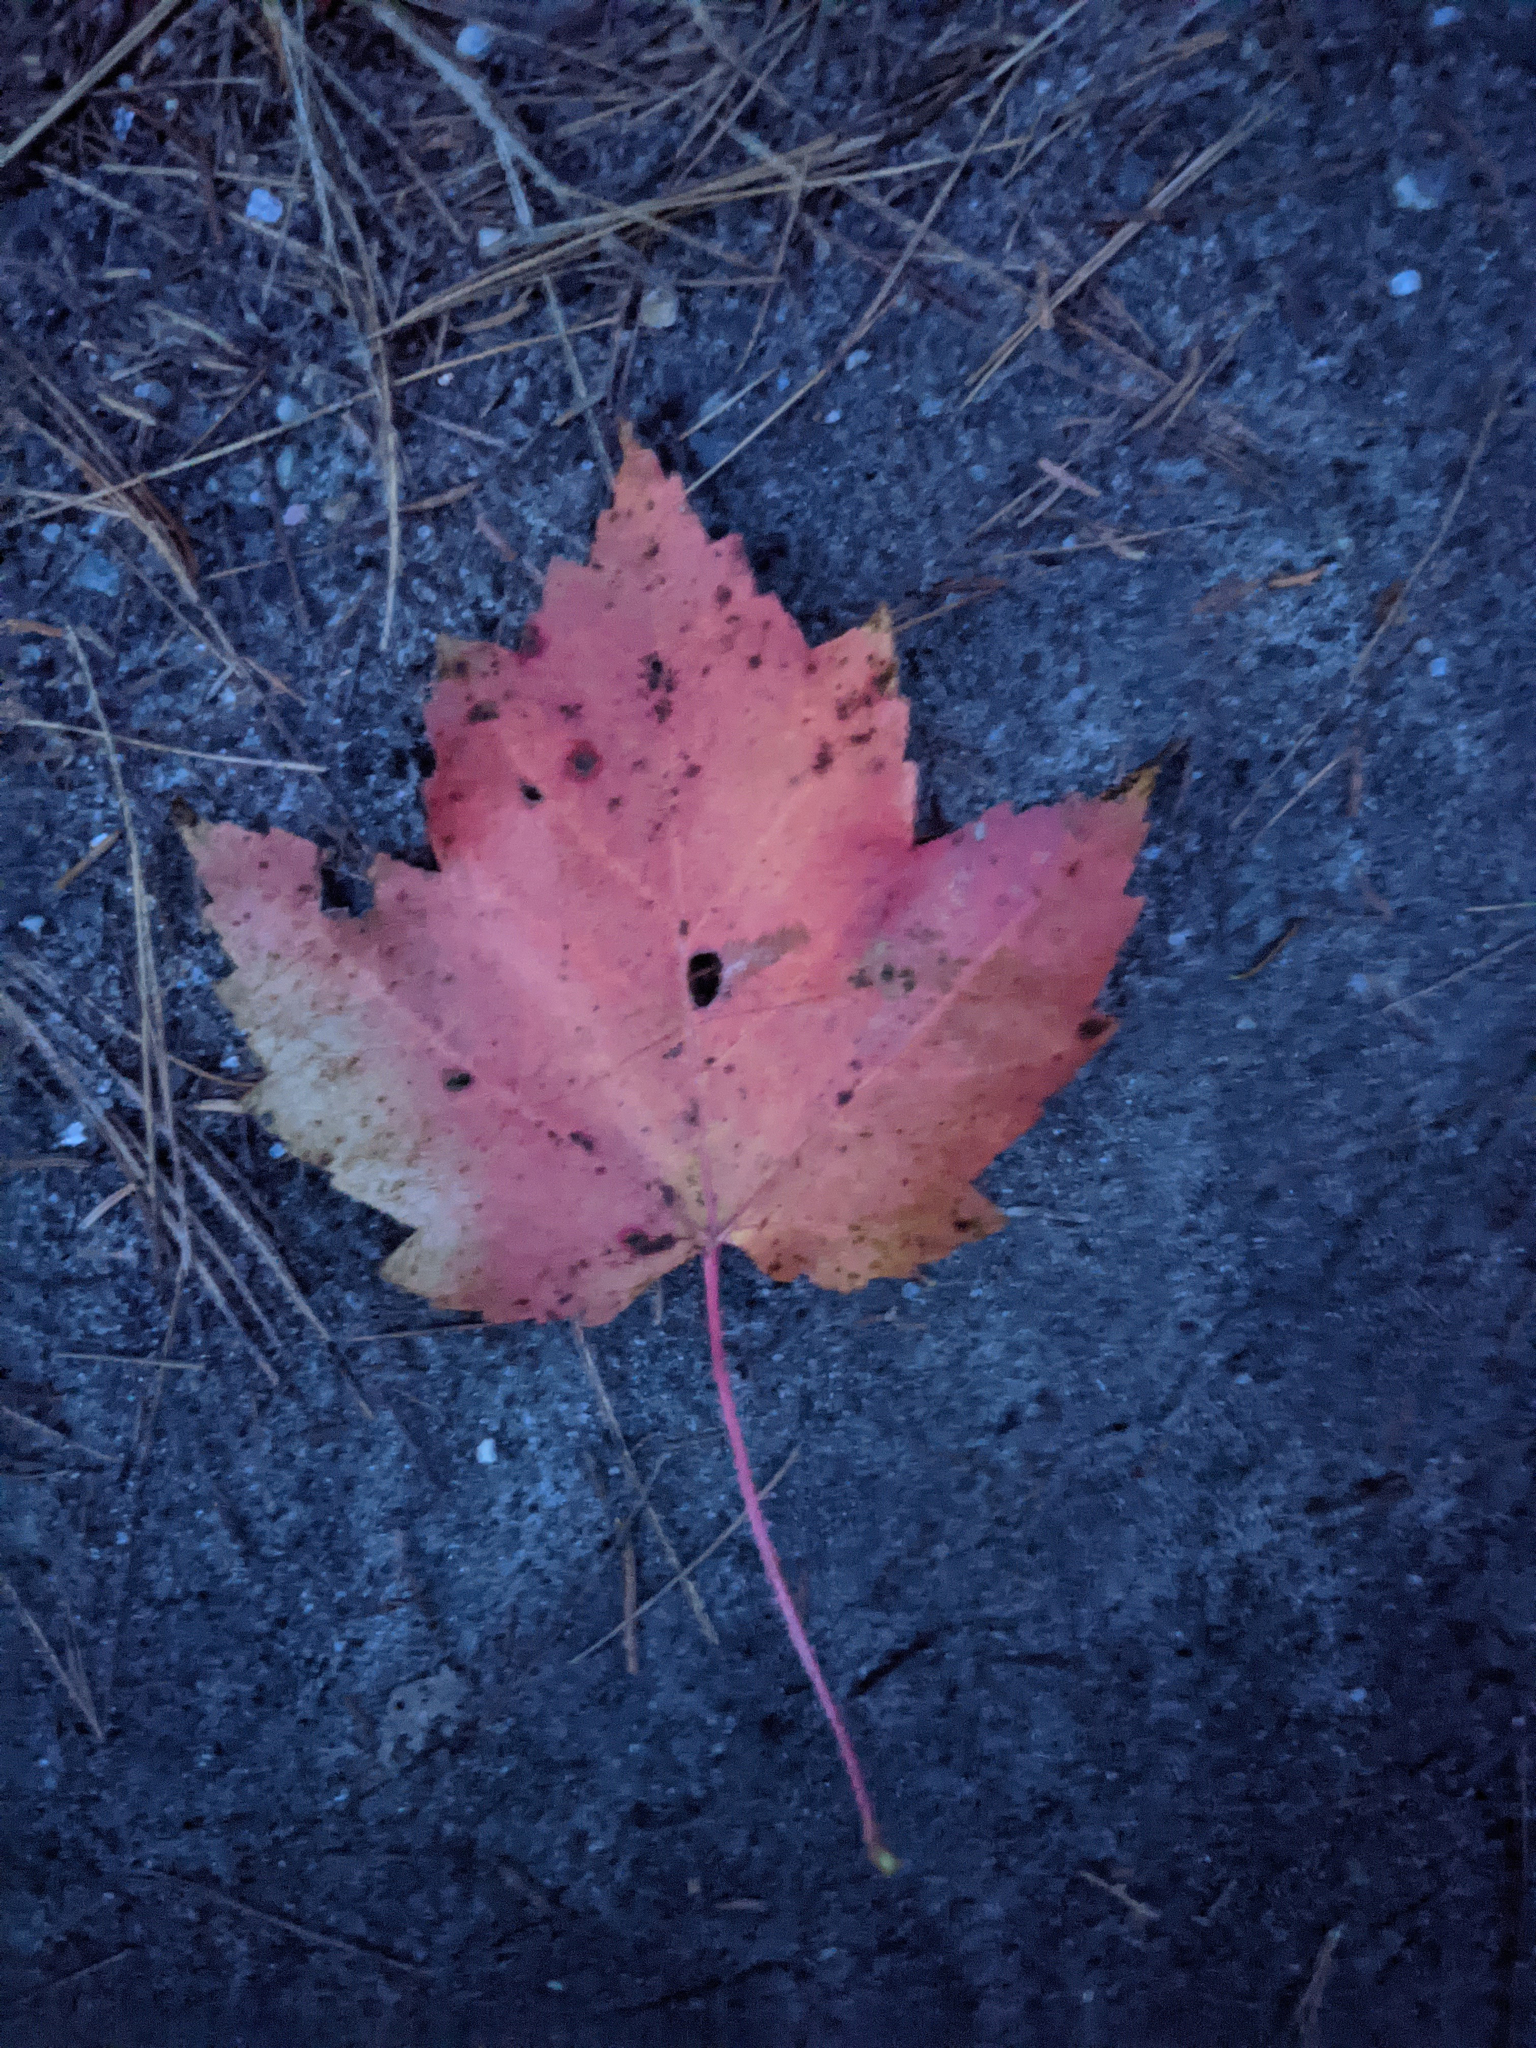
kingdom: Plantae
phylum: Tracheophyta
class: Magnoliopsida
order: Sapindales
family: Sapindaceae
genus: Acer
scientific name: Acer rubrum
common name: Red maple
